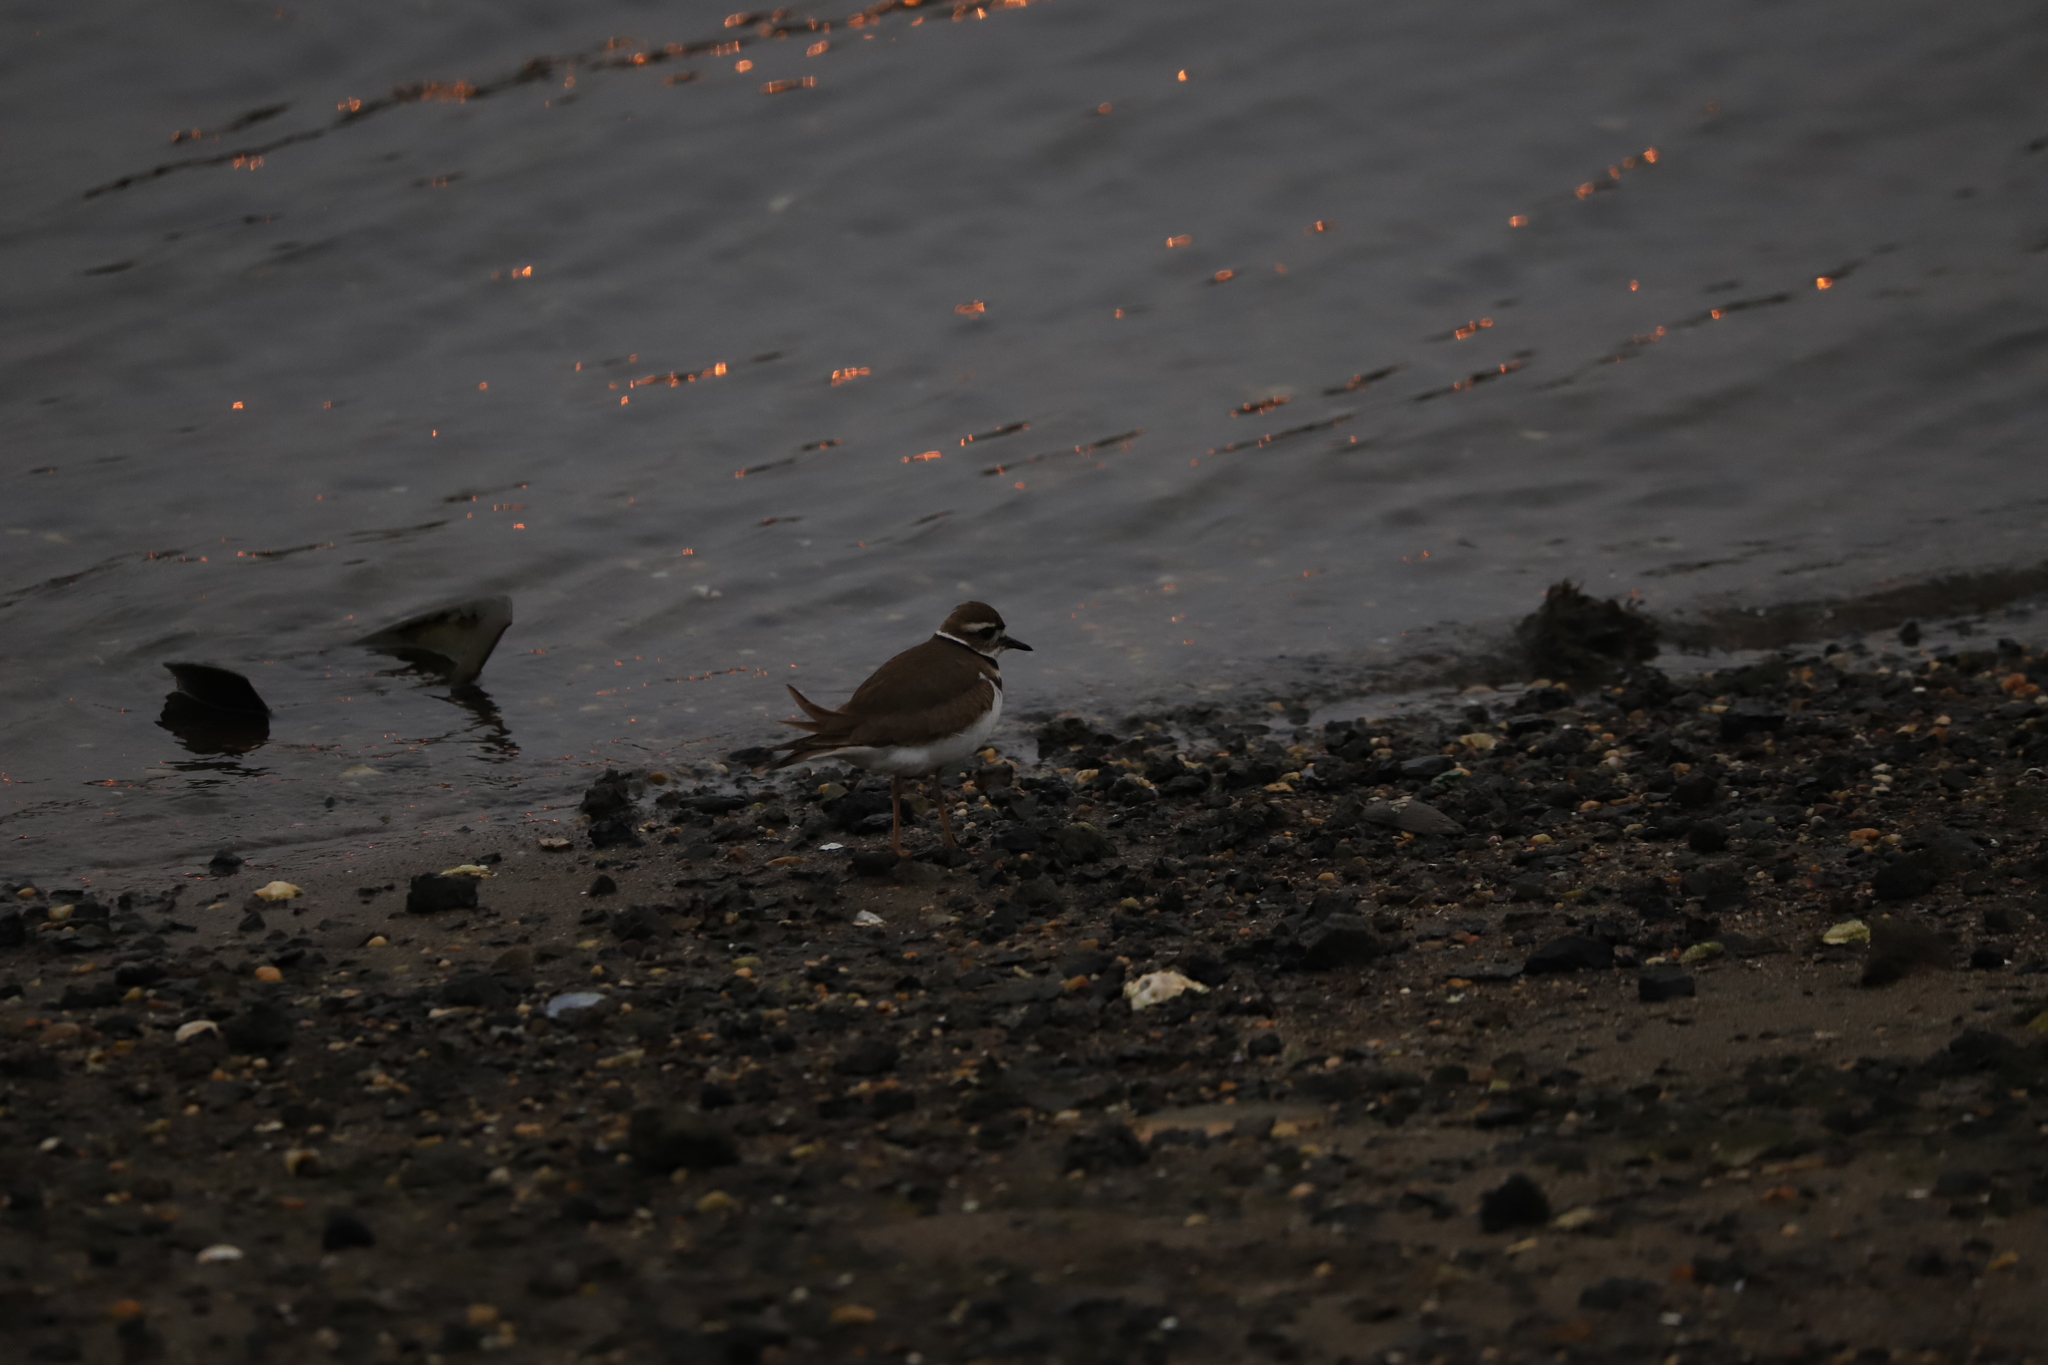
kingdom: Animalia
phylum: Chordata
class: Aves
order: Charadriiformes
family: Charadriidae
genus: Charadrius
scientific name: Charadrius vociferus
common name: Killdeer
